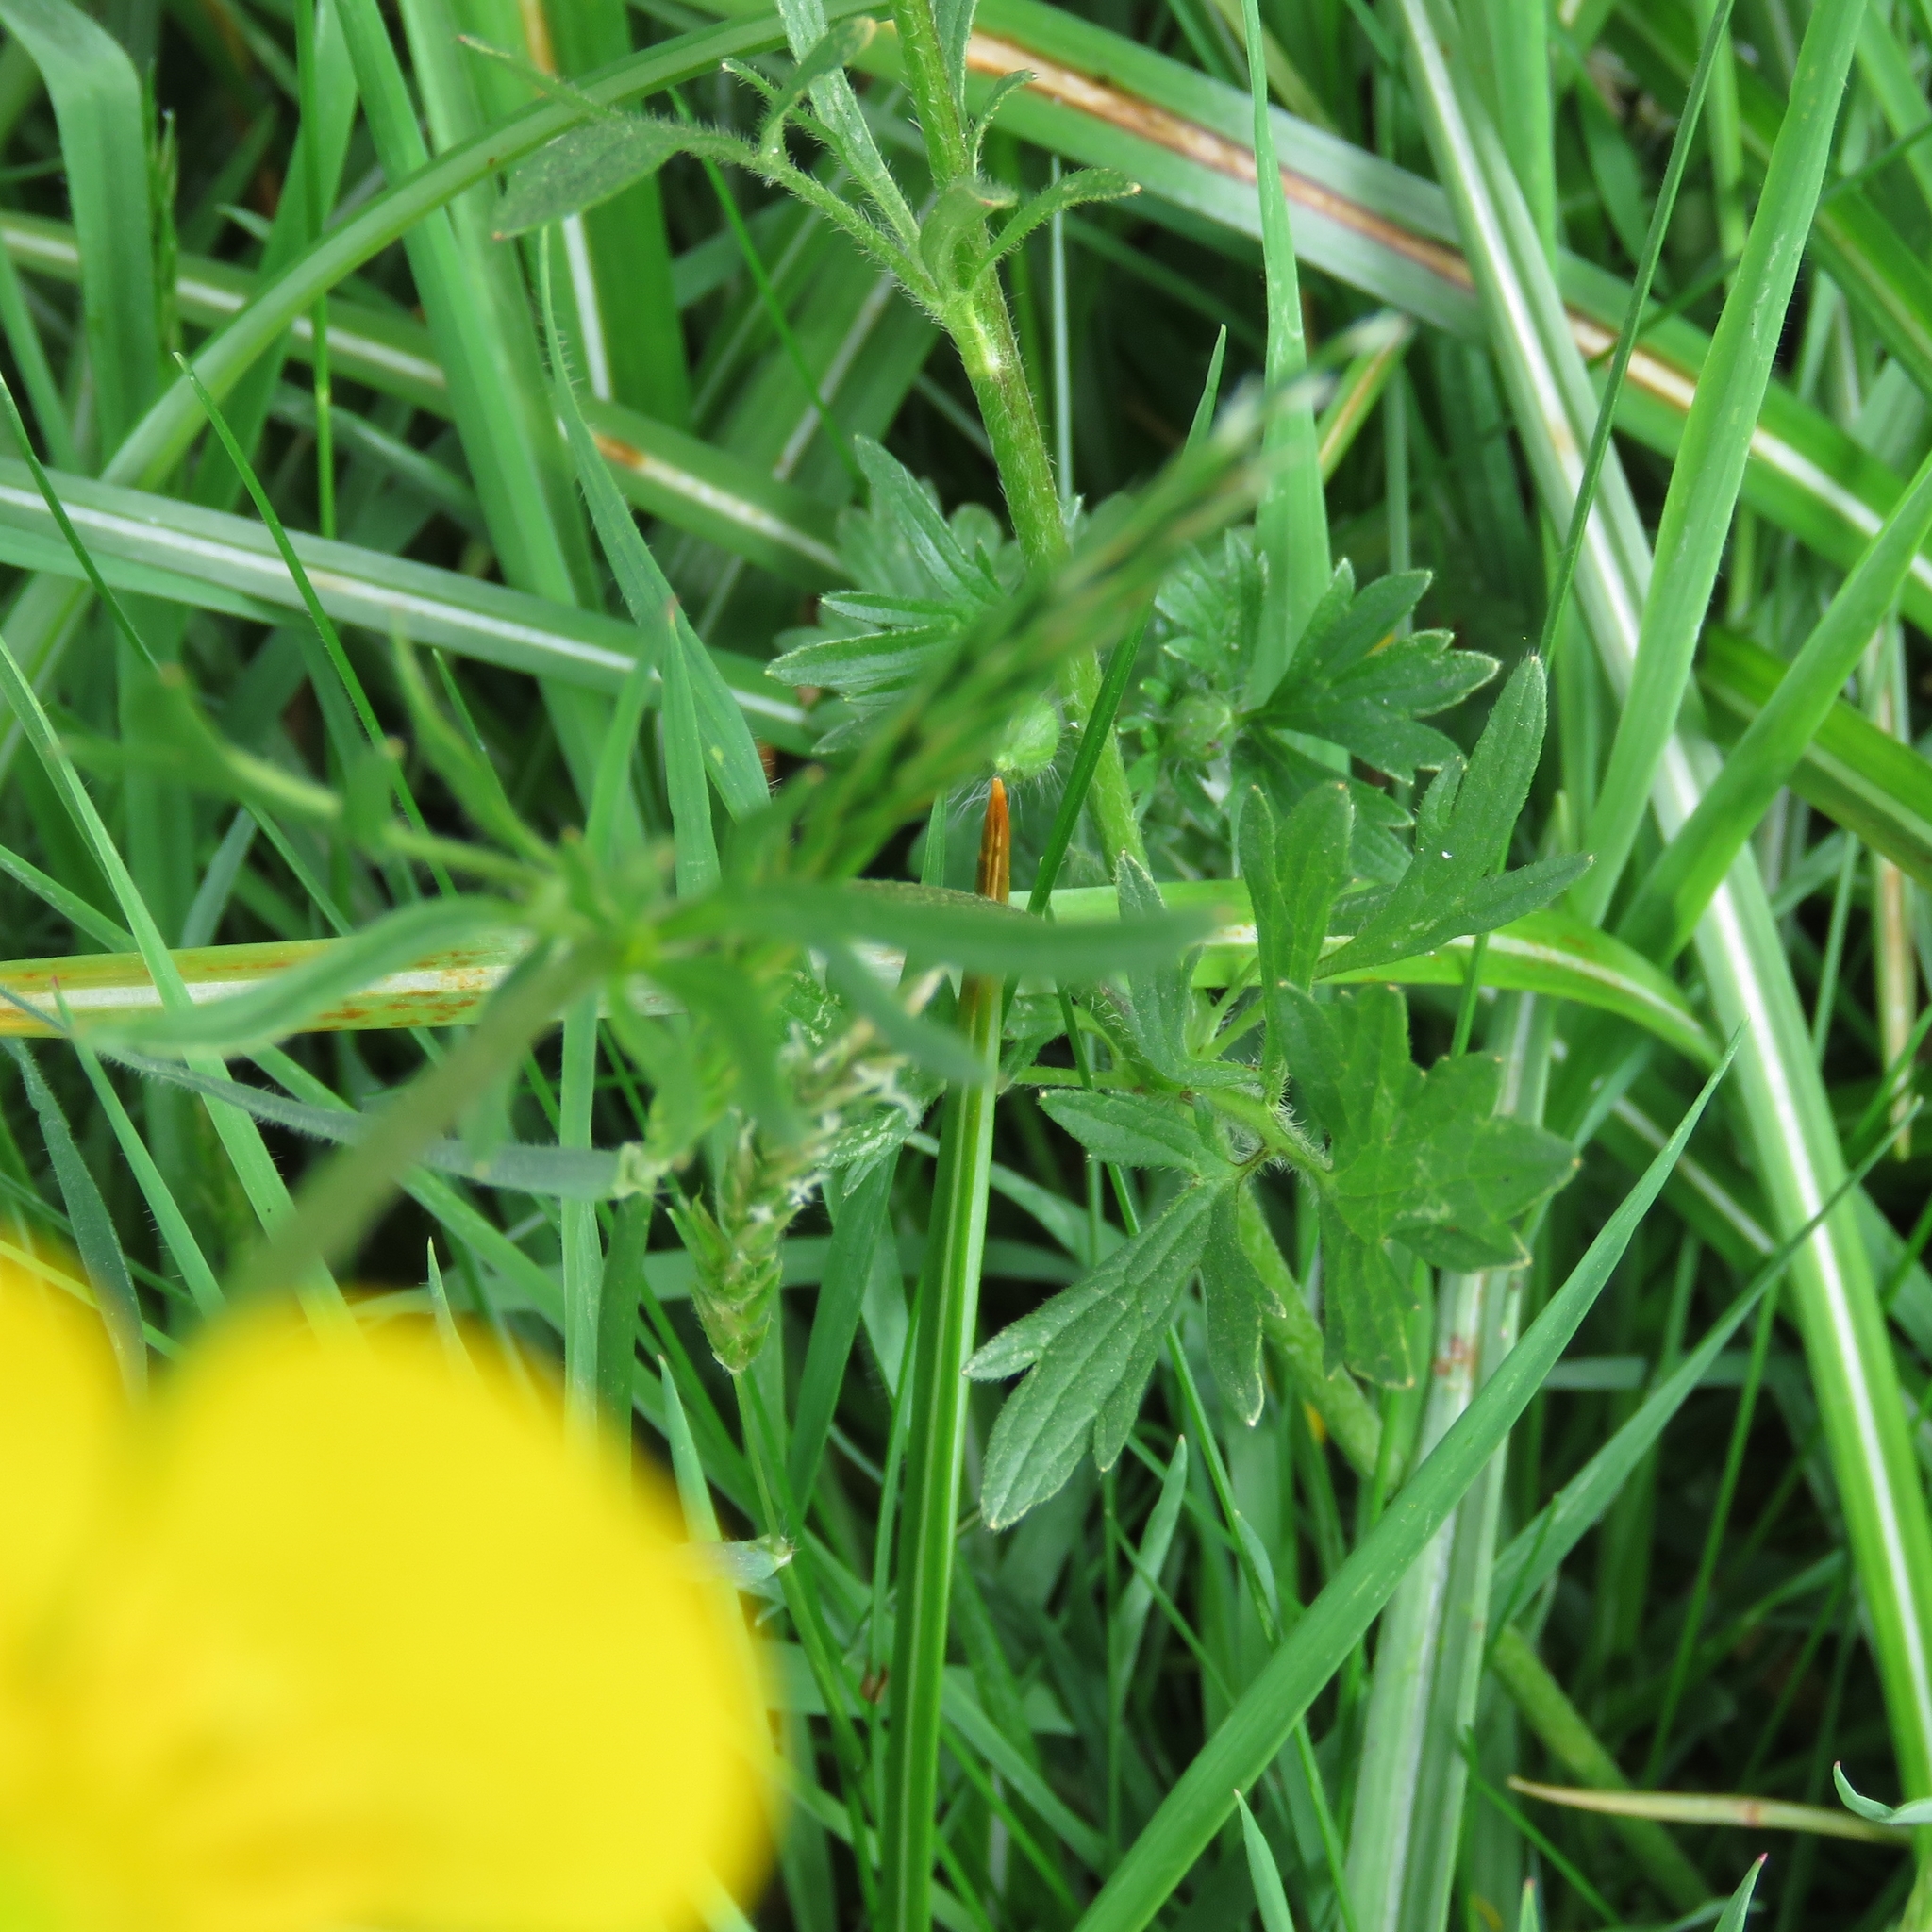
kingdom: Plantae
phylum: Tracheophyta
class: Magnoliopsida
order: Ranunculales
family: Ranunculaceae
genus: Ranunculus
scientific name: Ranunculus acris
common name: Meadow buttercup
